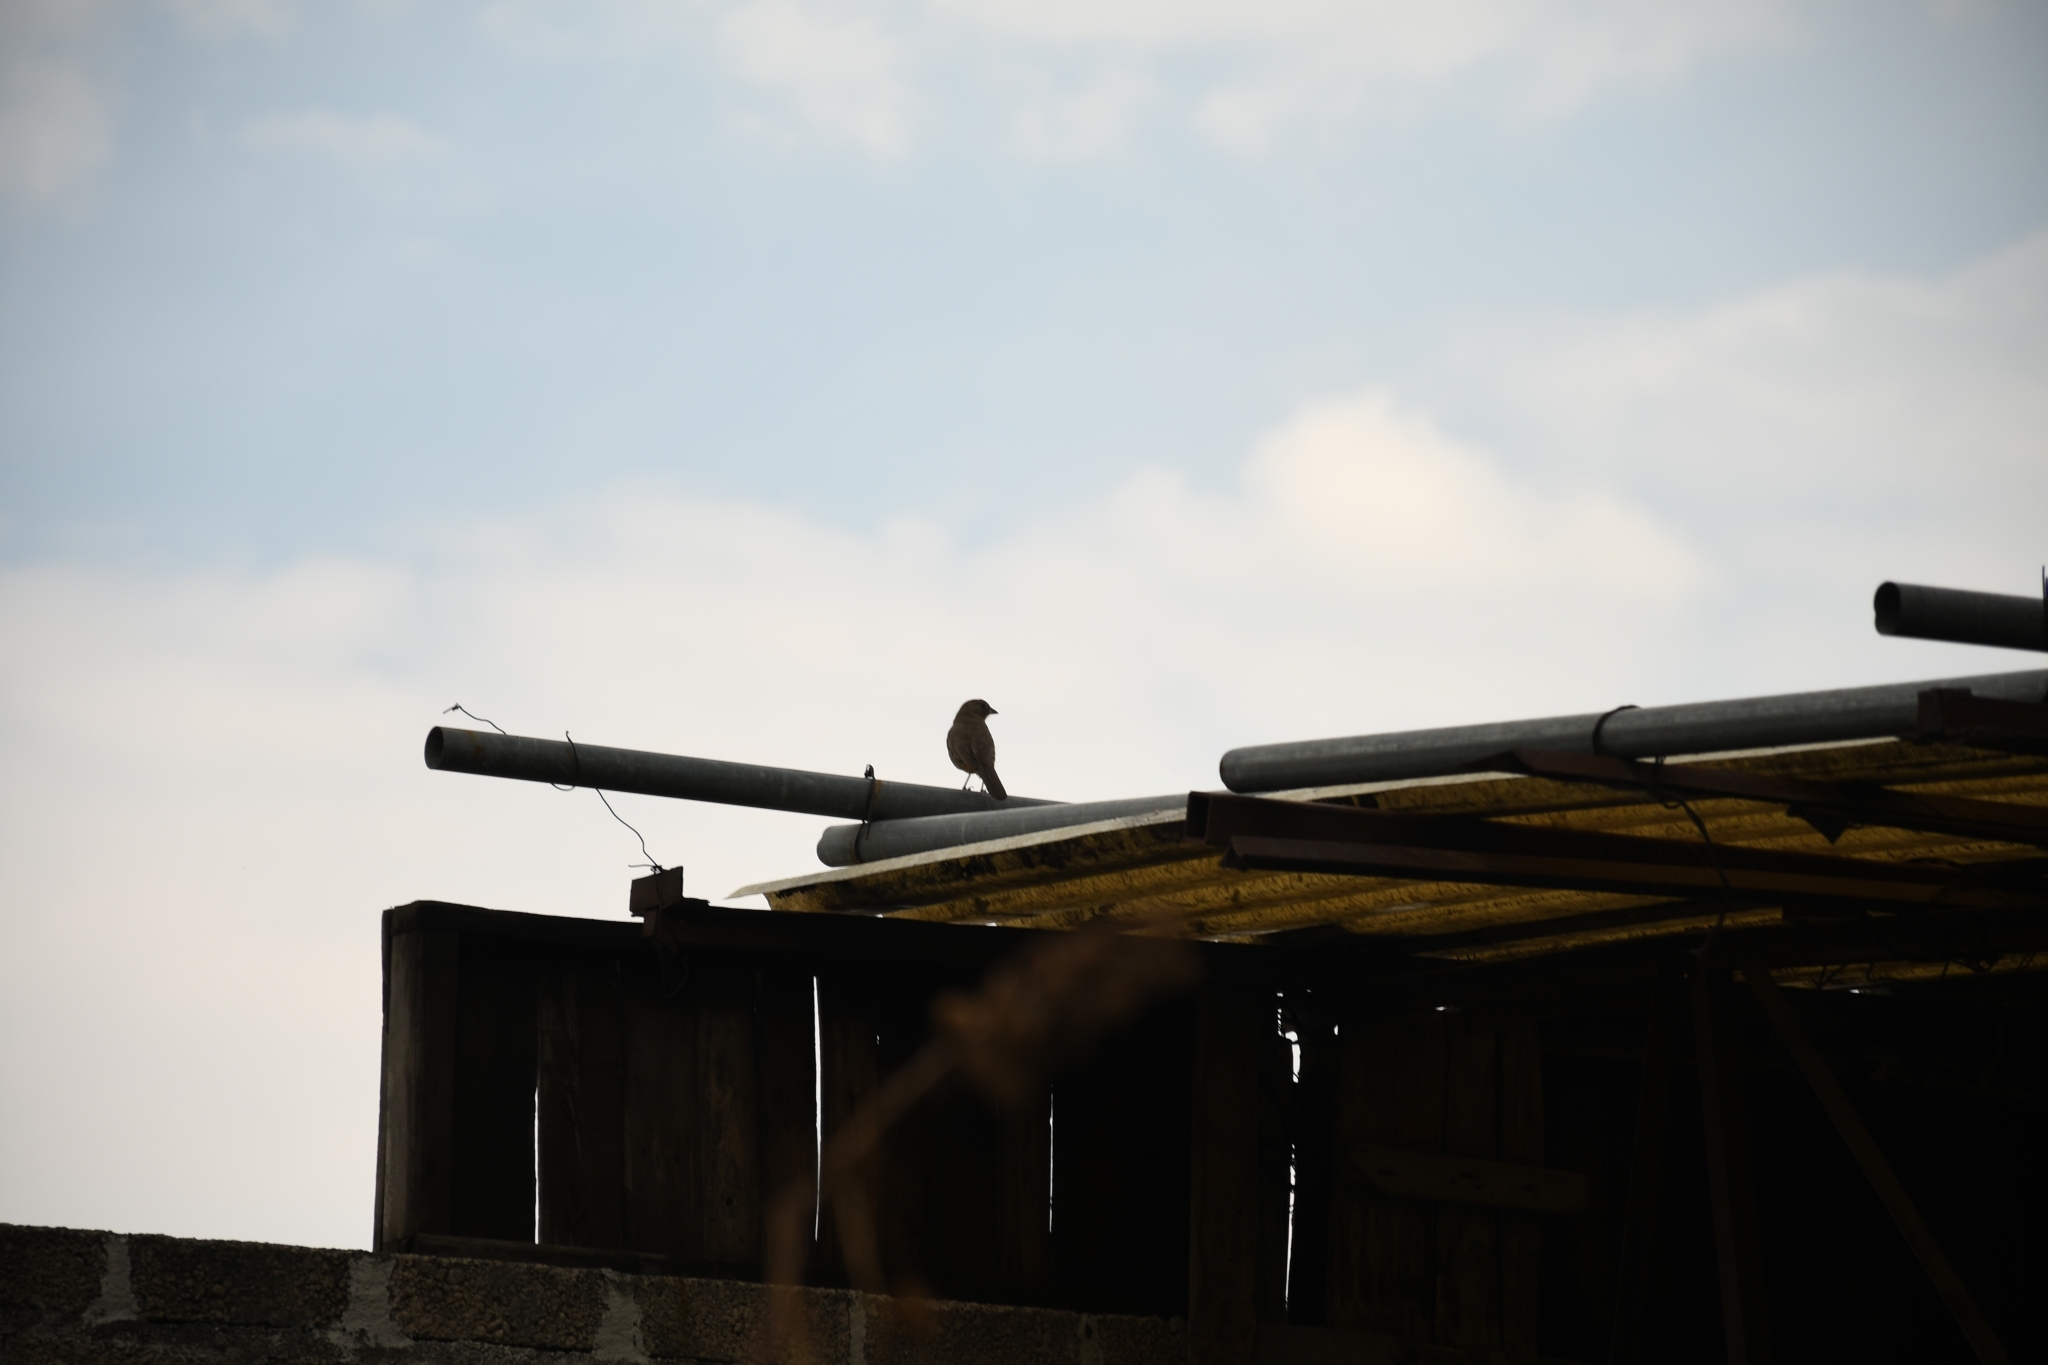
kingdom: Animalia
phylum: Chordata
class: Aves
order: Passeriformes
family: Passerellidae
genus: Melozone
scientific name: Melozone fusca
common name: Canyon towhee
